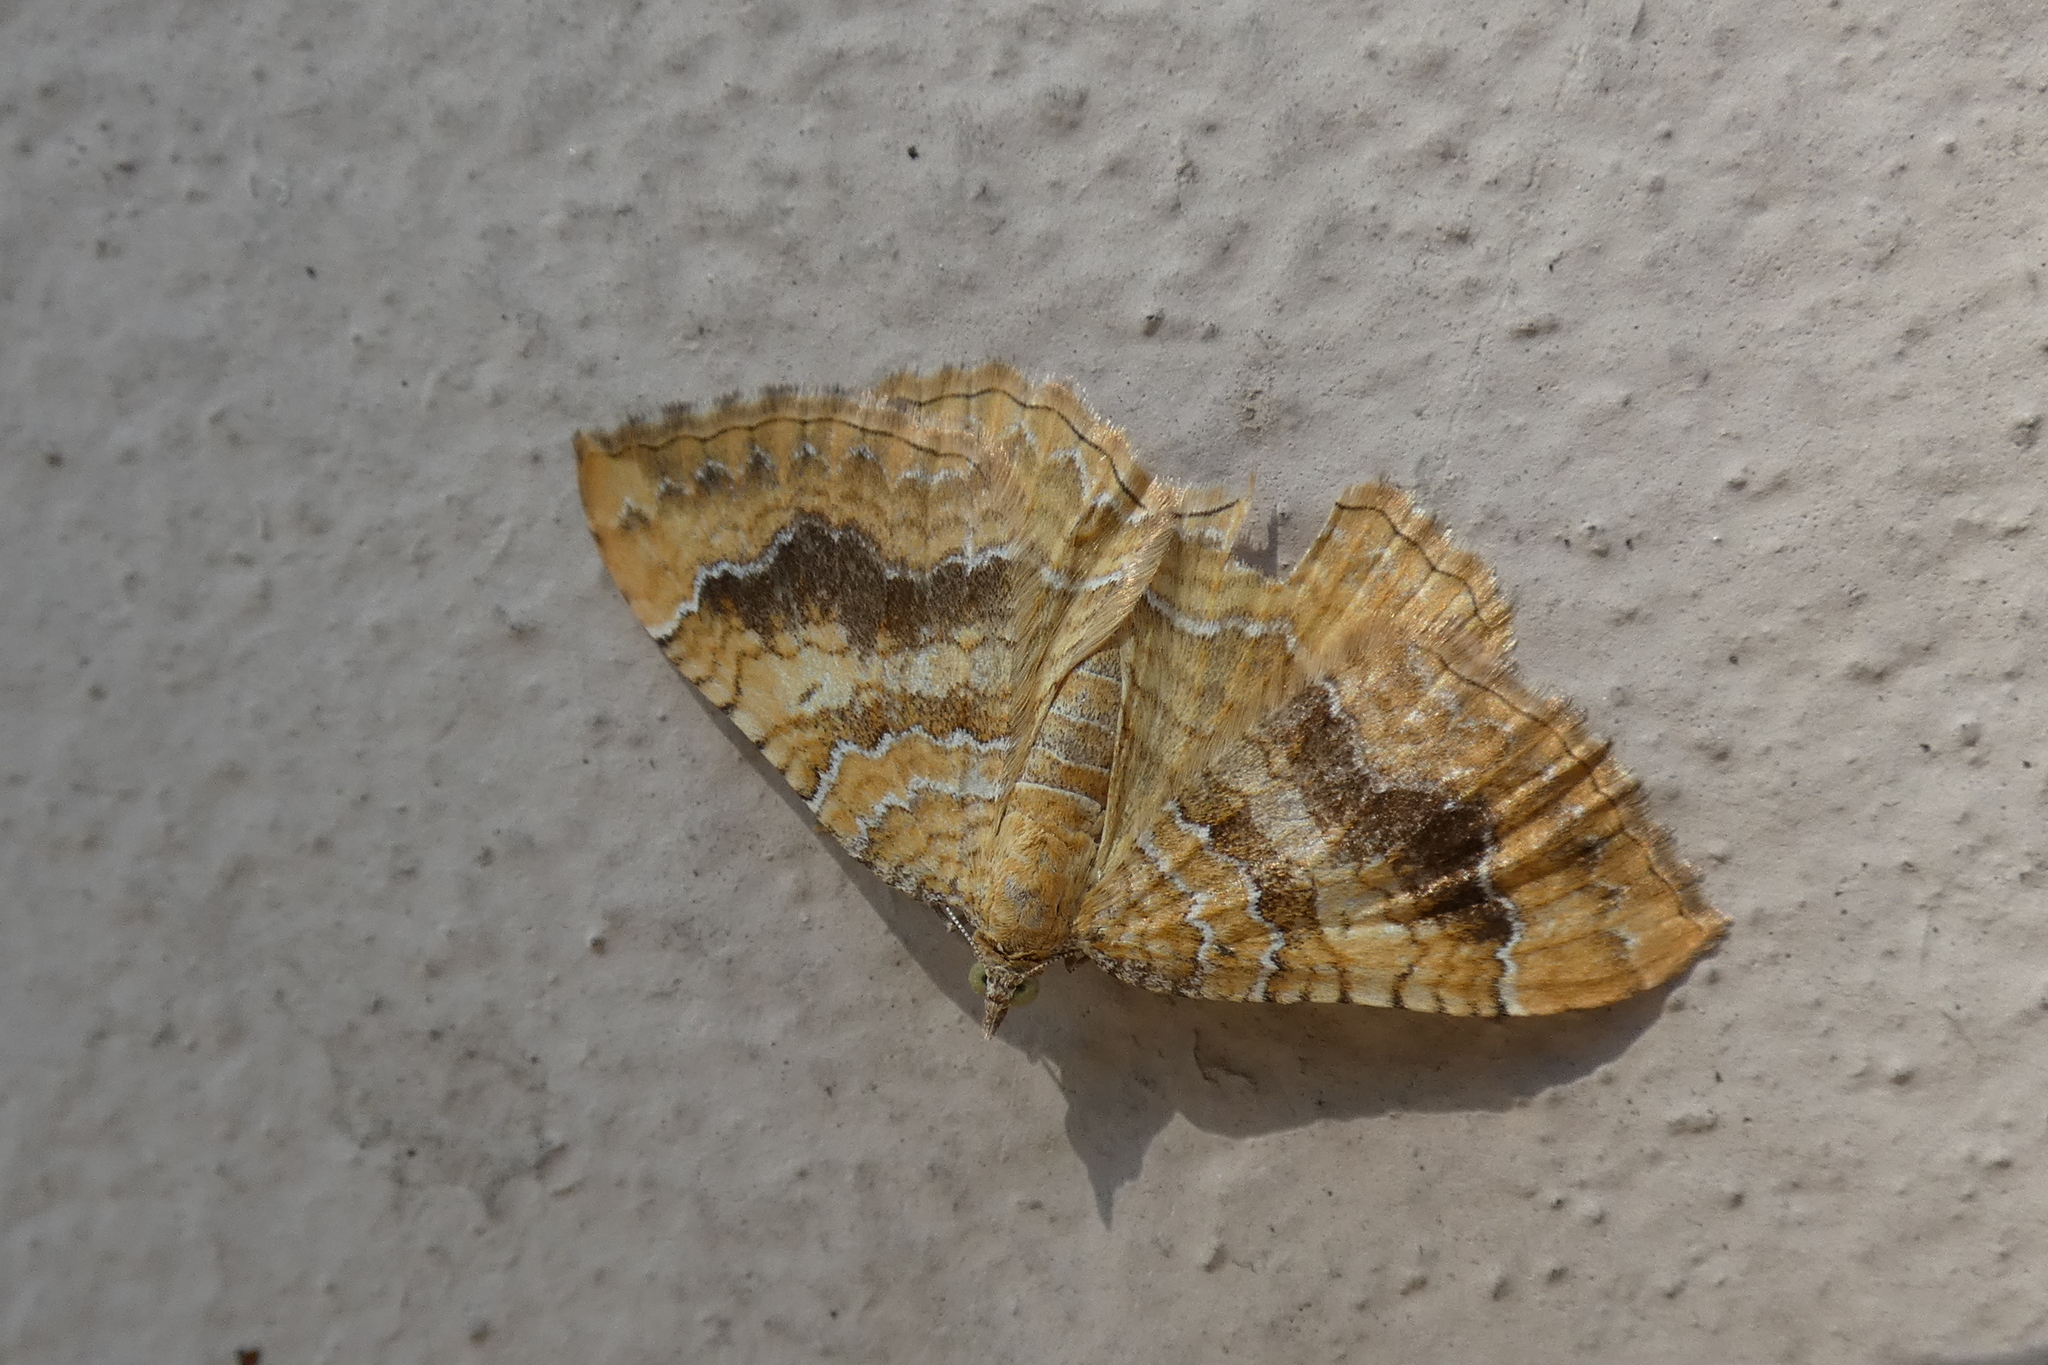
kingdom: Animalia
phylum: Arthropoda
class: Insecta
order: Lepidoptera
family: Geometridae
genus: Camptogramma
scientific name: Camptogramma bilineata
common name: Yellow shell
